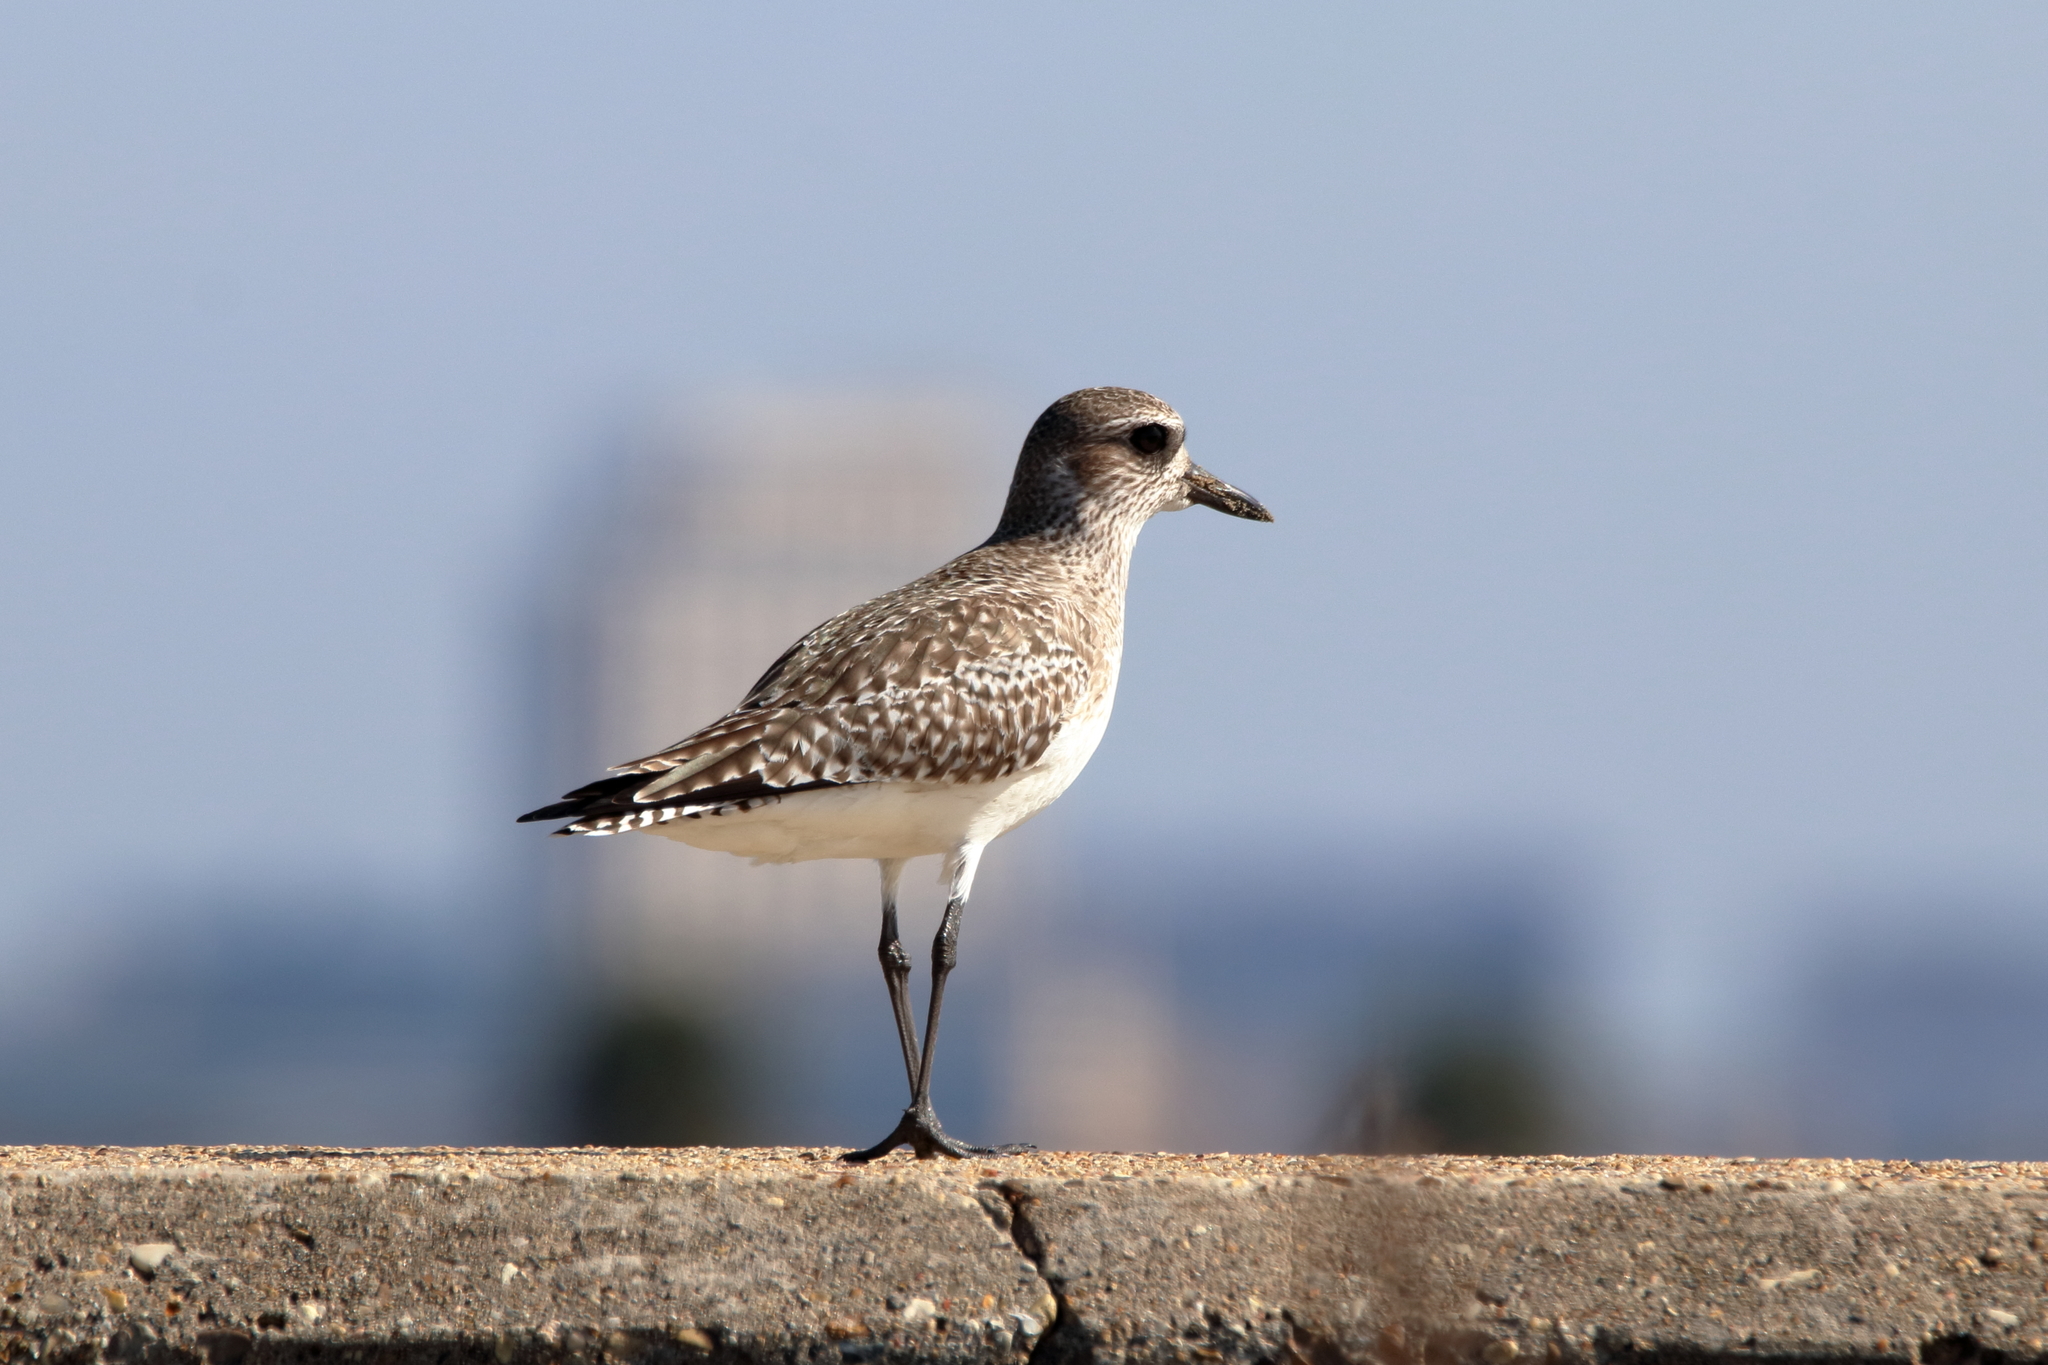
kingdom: Animalia
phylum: Chordata
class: Aves
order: Charadriiformes
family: Charadriidae
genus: Pluvialis
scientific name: Pluvialis squatarola
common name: Grey plover
